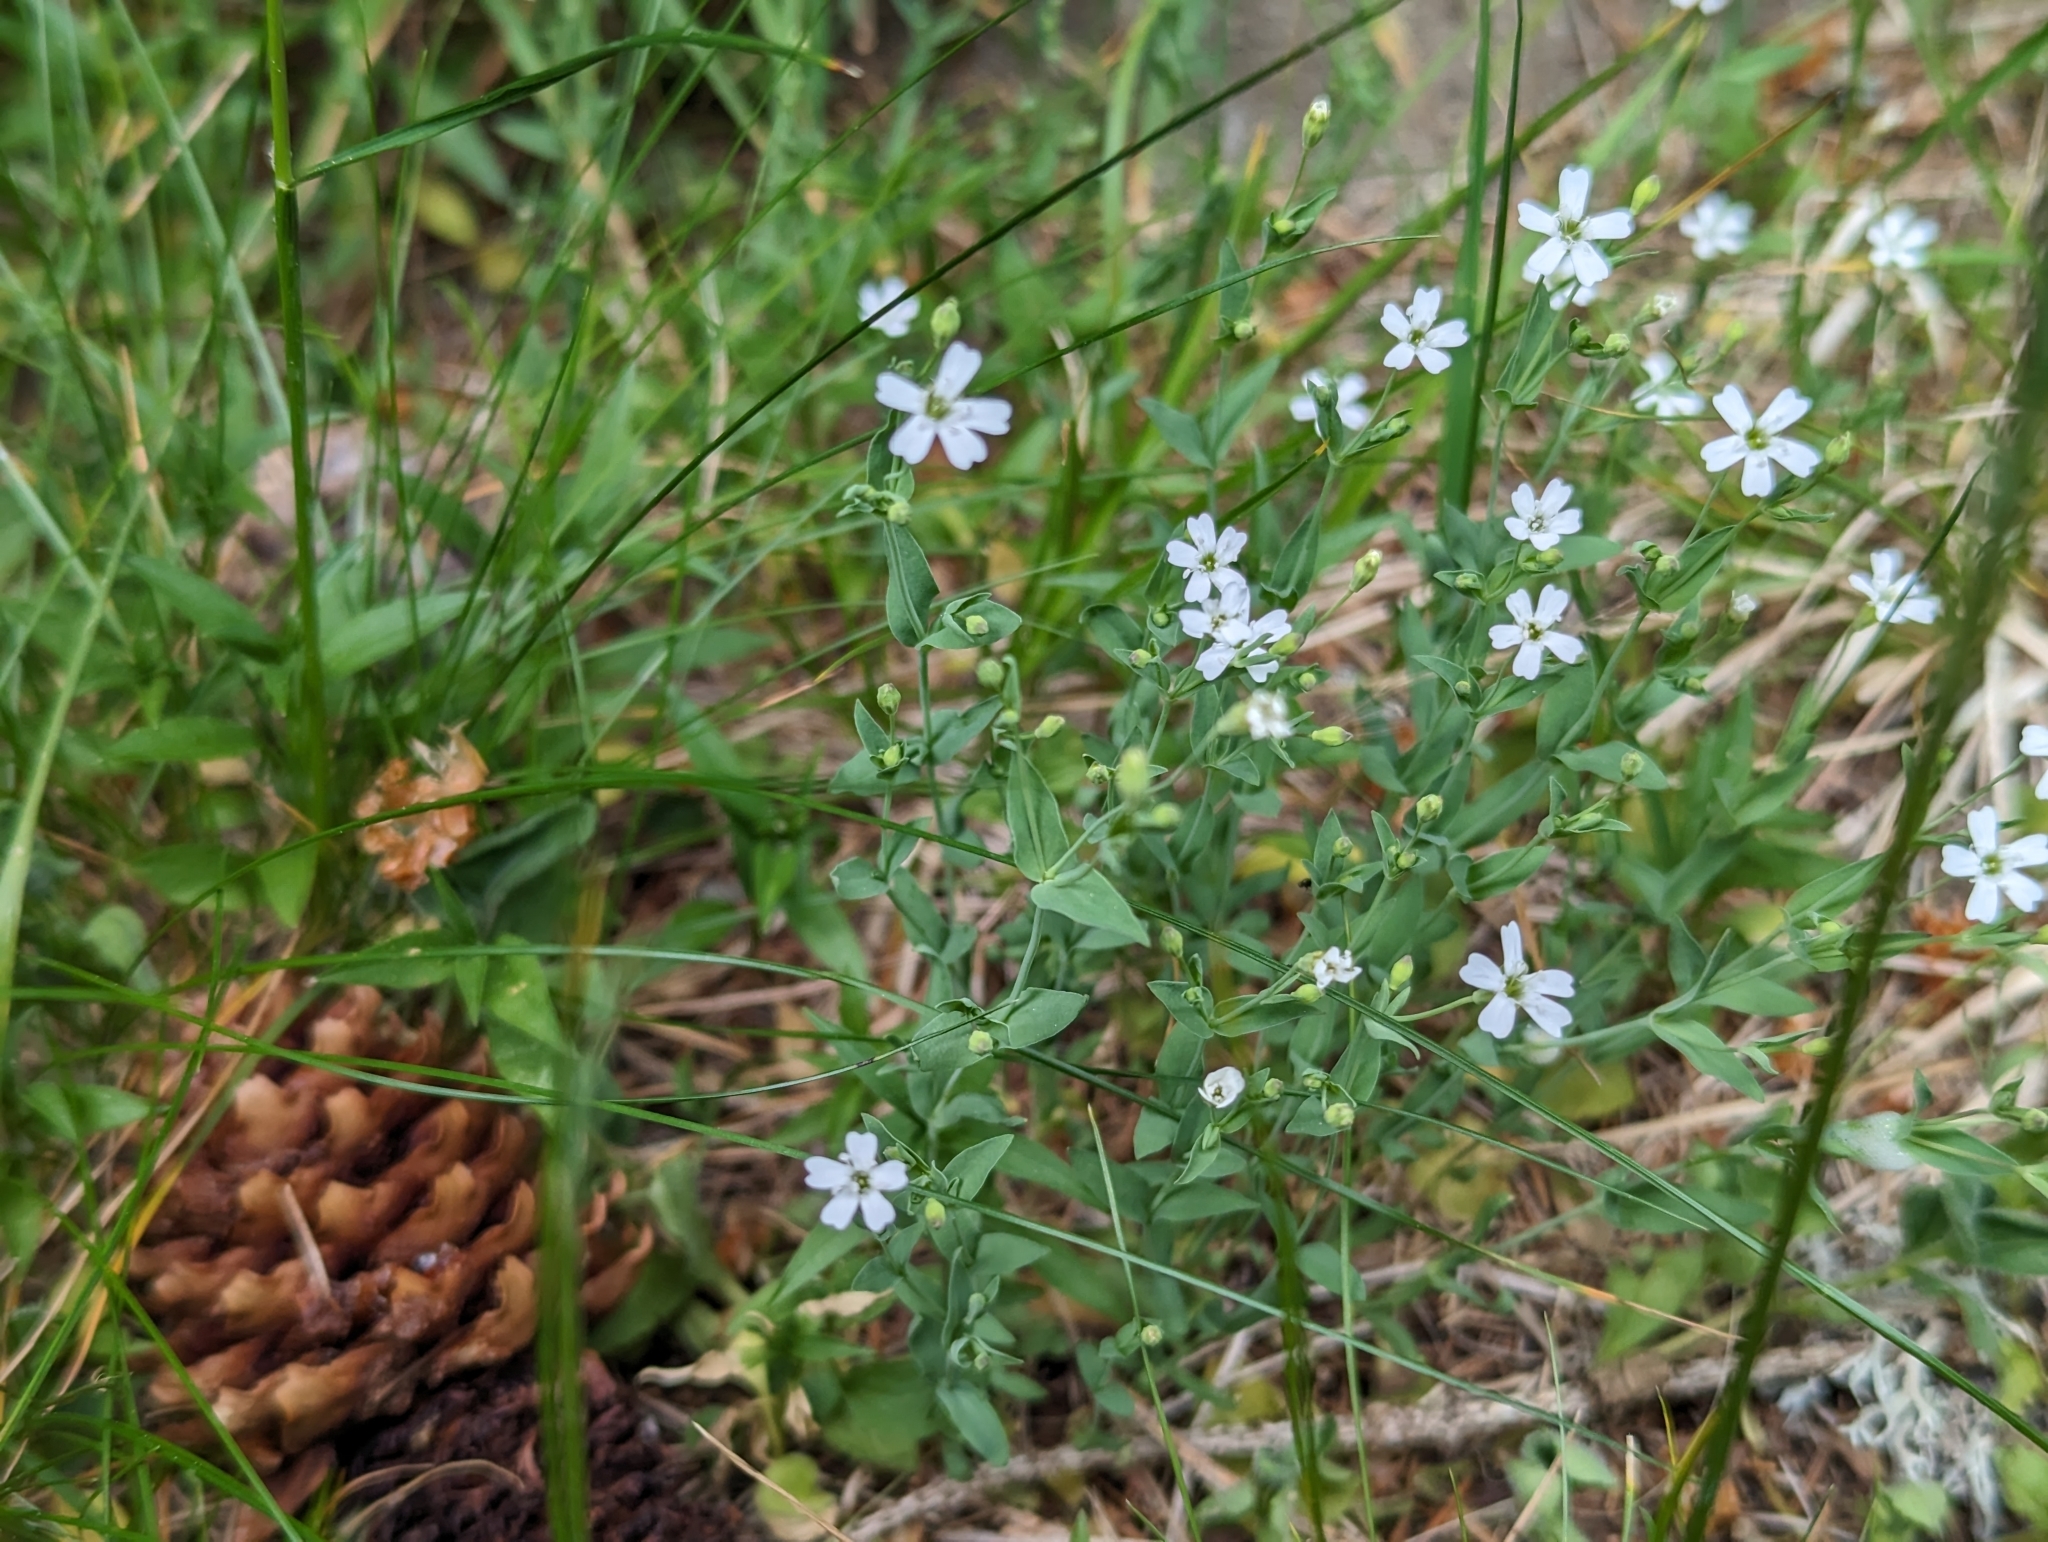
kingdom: Plantae
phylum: Tracheophyta
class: Magnoliopsida
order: Caryophyllales
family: Caryophyllaceae
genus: Atocion
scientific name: Atocion rupestre
